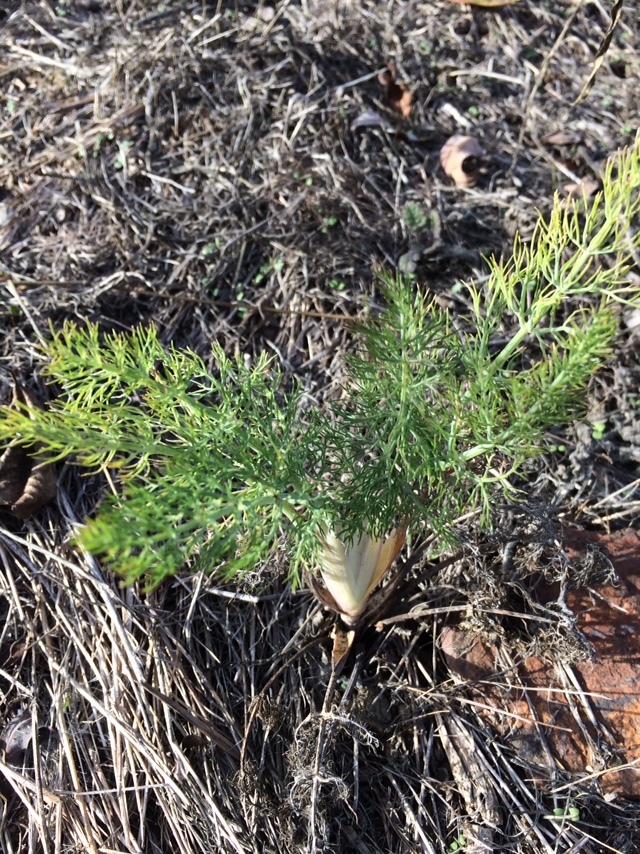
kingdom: Plantae
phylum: Tracheophyta
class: Magnoliopsida
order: Apiales
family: Apiaceae
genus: Foeniculum
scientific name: Foeniculum vulgare
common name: Fennel
